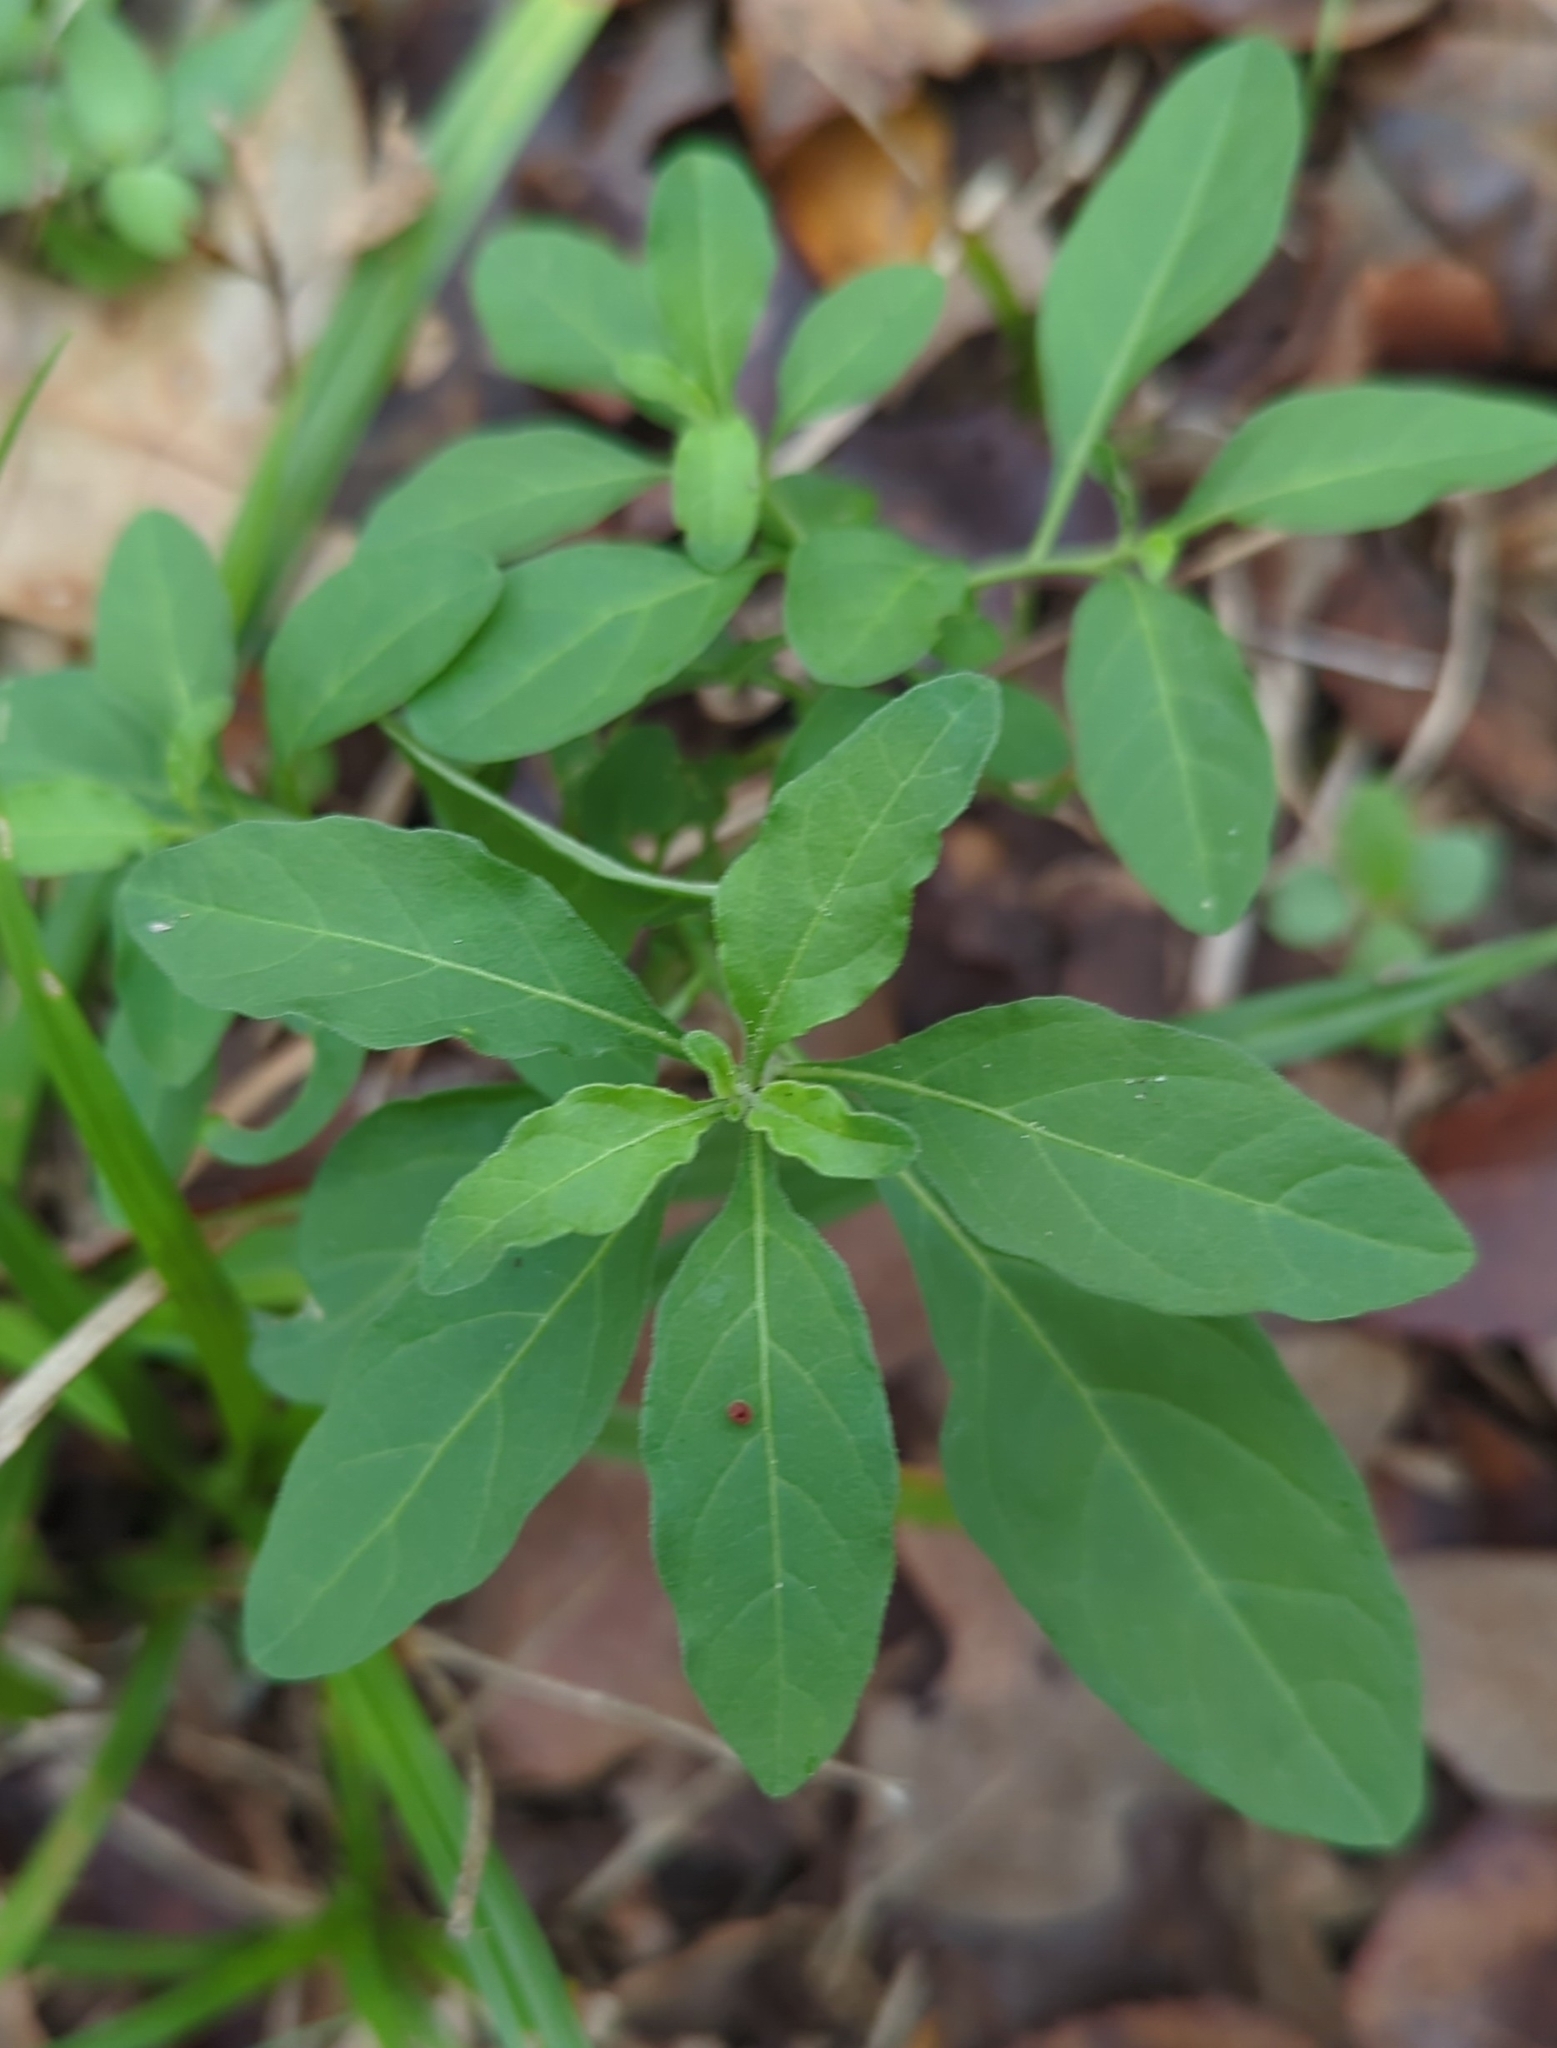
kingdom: Plantae
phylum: Tracheophyta
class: Magnoliopsida
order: Solanales
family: Solanaceae
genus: Solanum
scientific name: Solanum pseudocapsicum
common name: Jerusalem cherry
